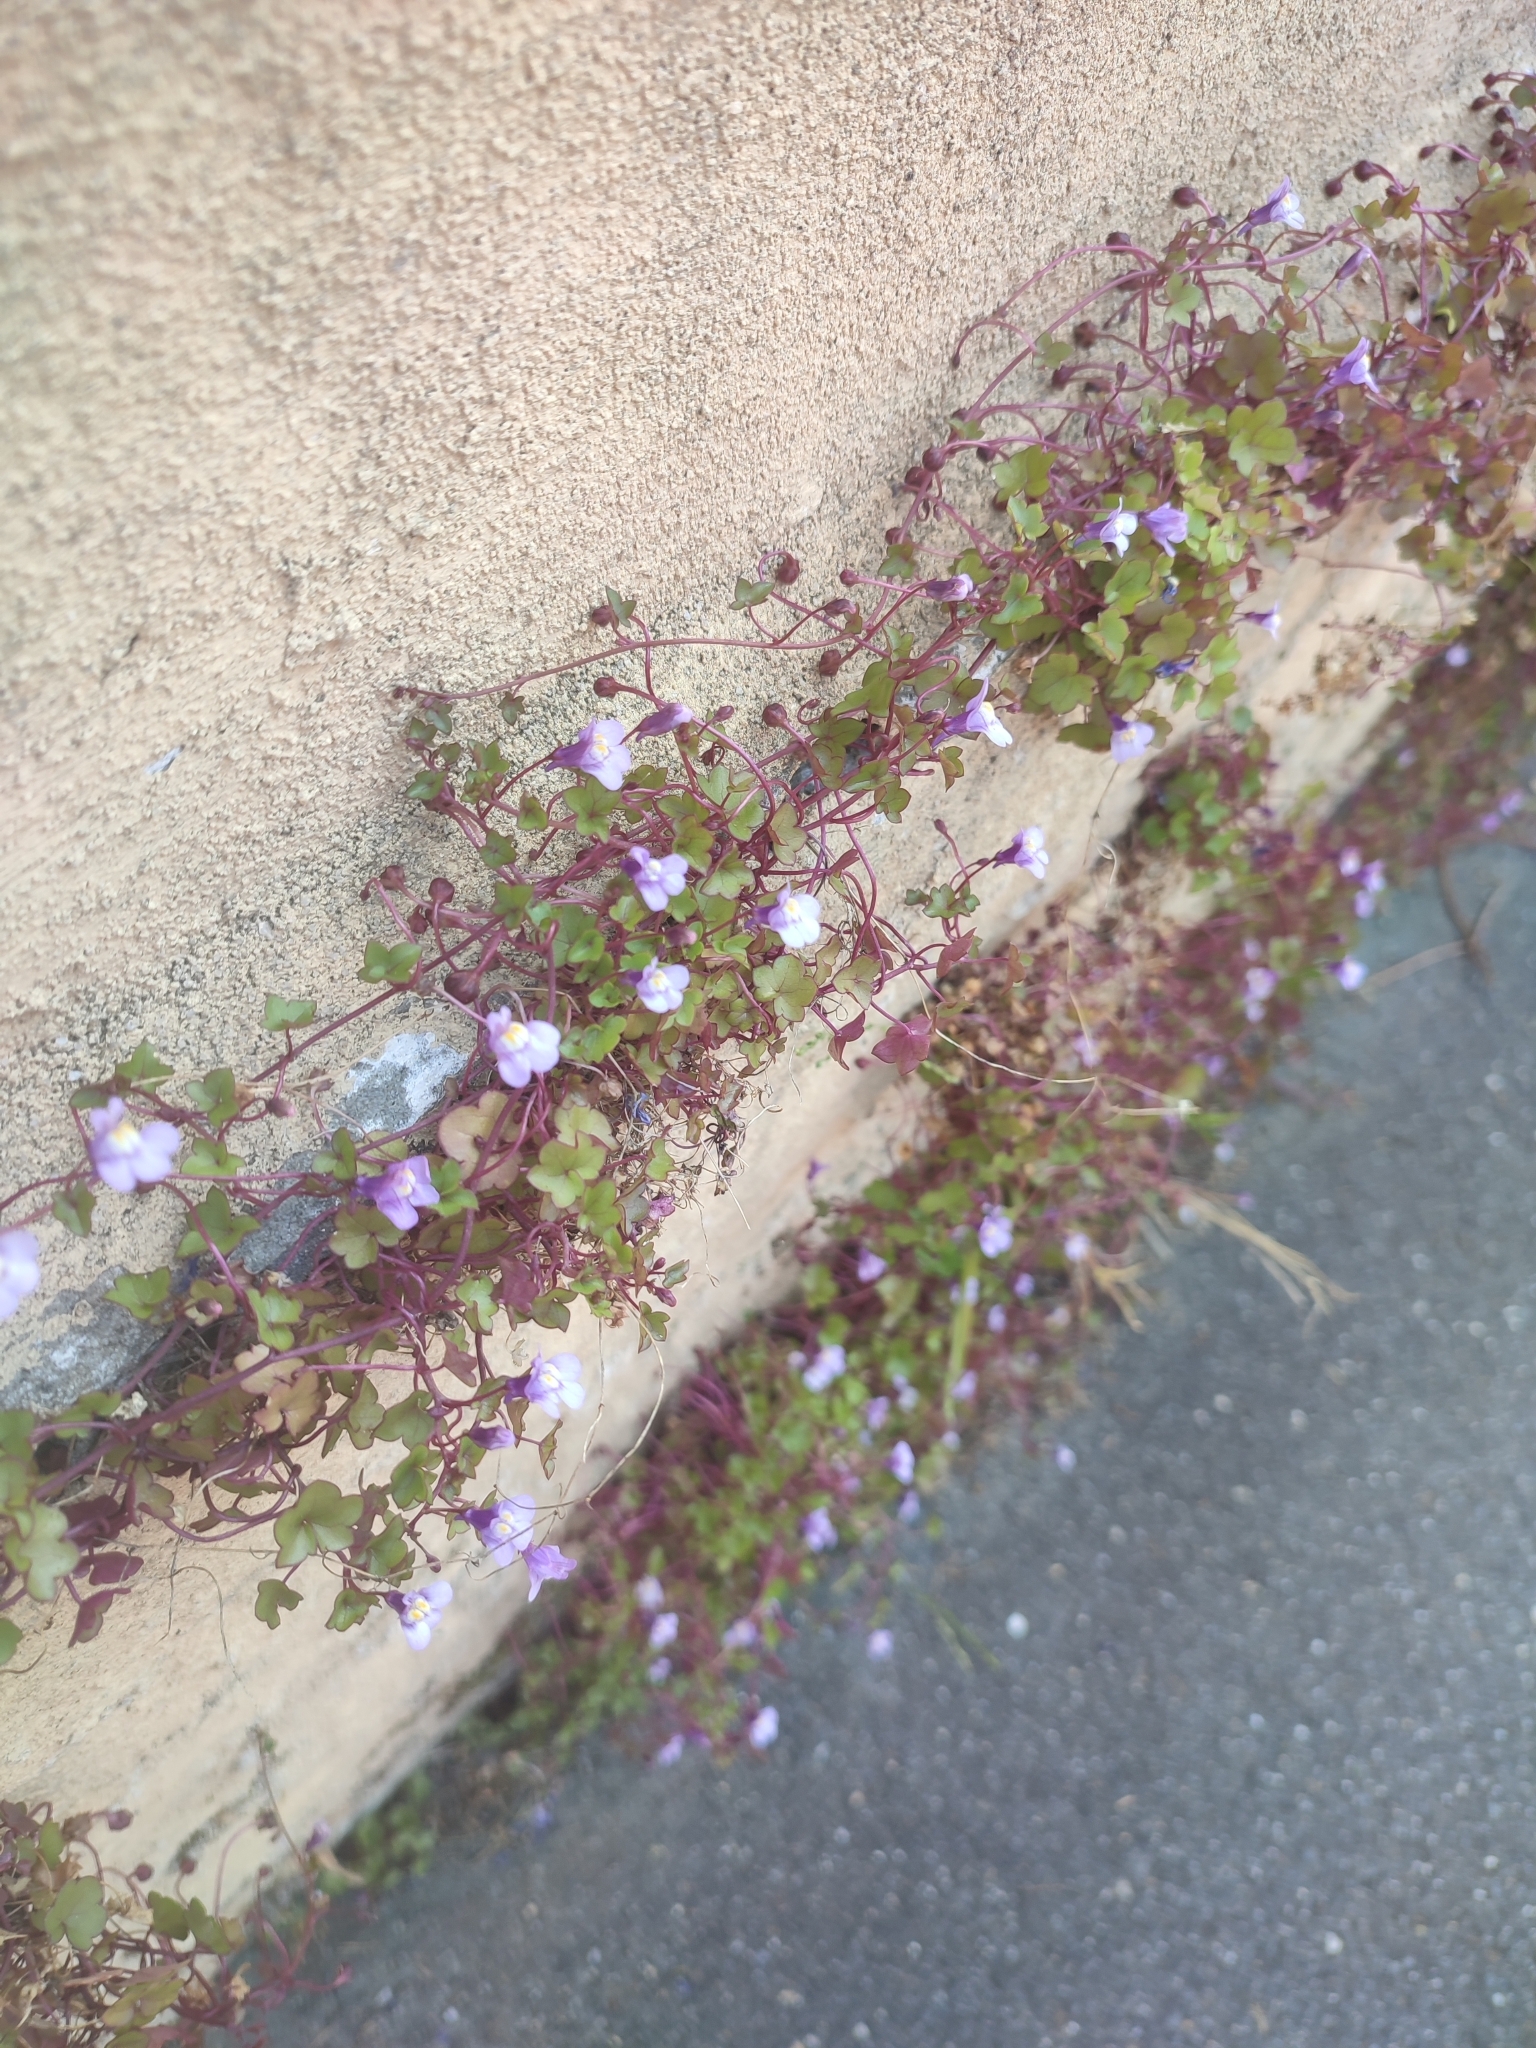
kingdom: Plantae
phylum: Tracheophyta
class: Magnoliopsida
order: Lamiales
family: Plantaginaceae
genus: Cymbalaria
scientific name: Cymbalaria muralis
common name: Ivy-leaved toadflax
